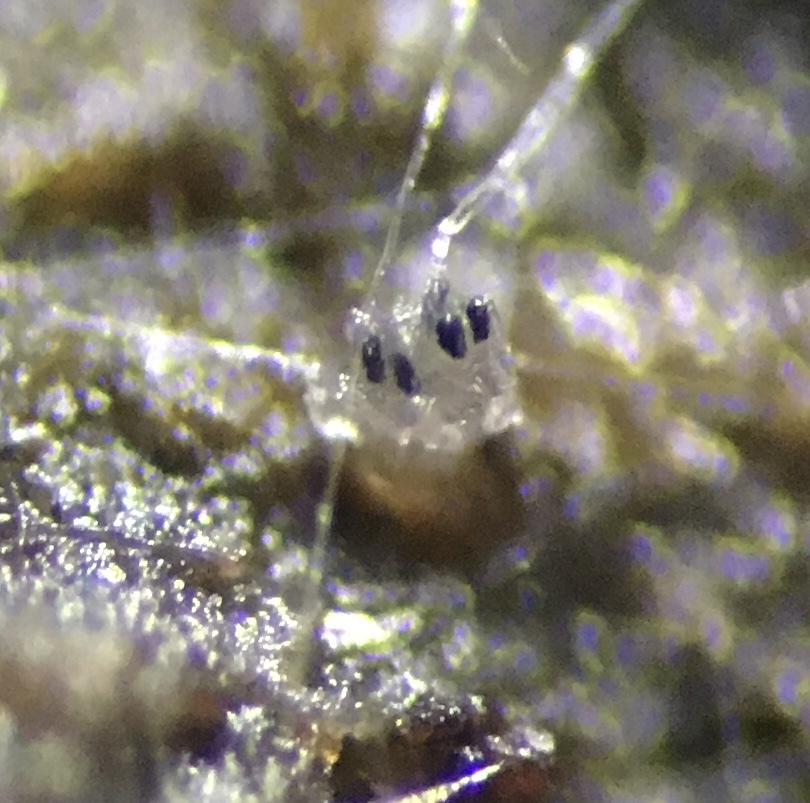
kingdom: Fungi
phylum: Ascomycota
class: Pezizomycetes
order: Pezizales
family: Ascobolaceae
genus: Saccobolus
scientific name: Saccobolus beckii
